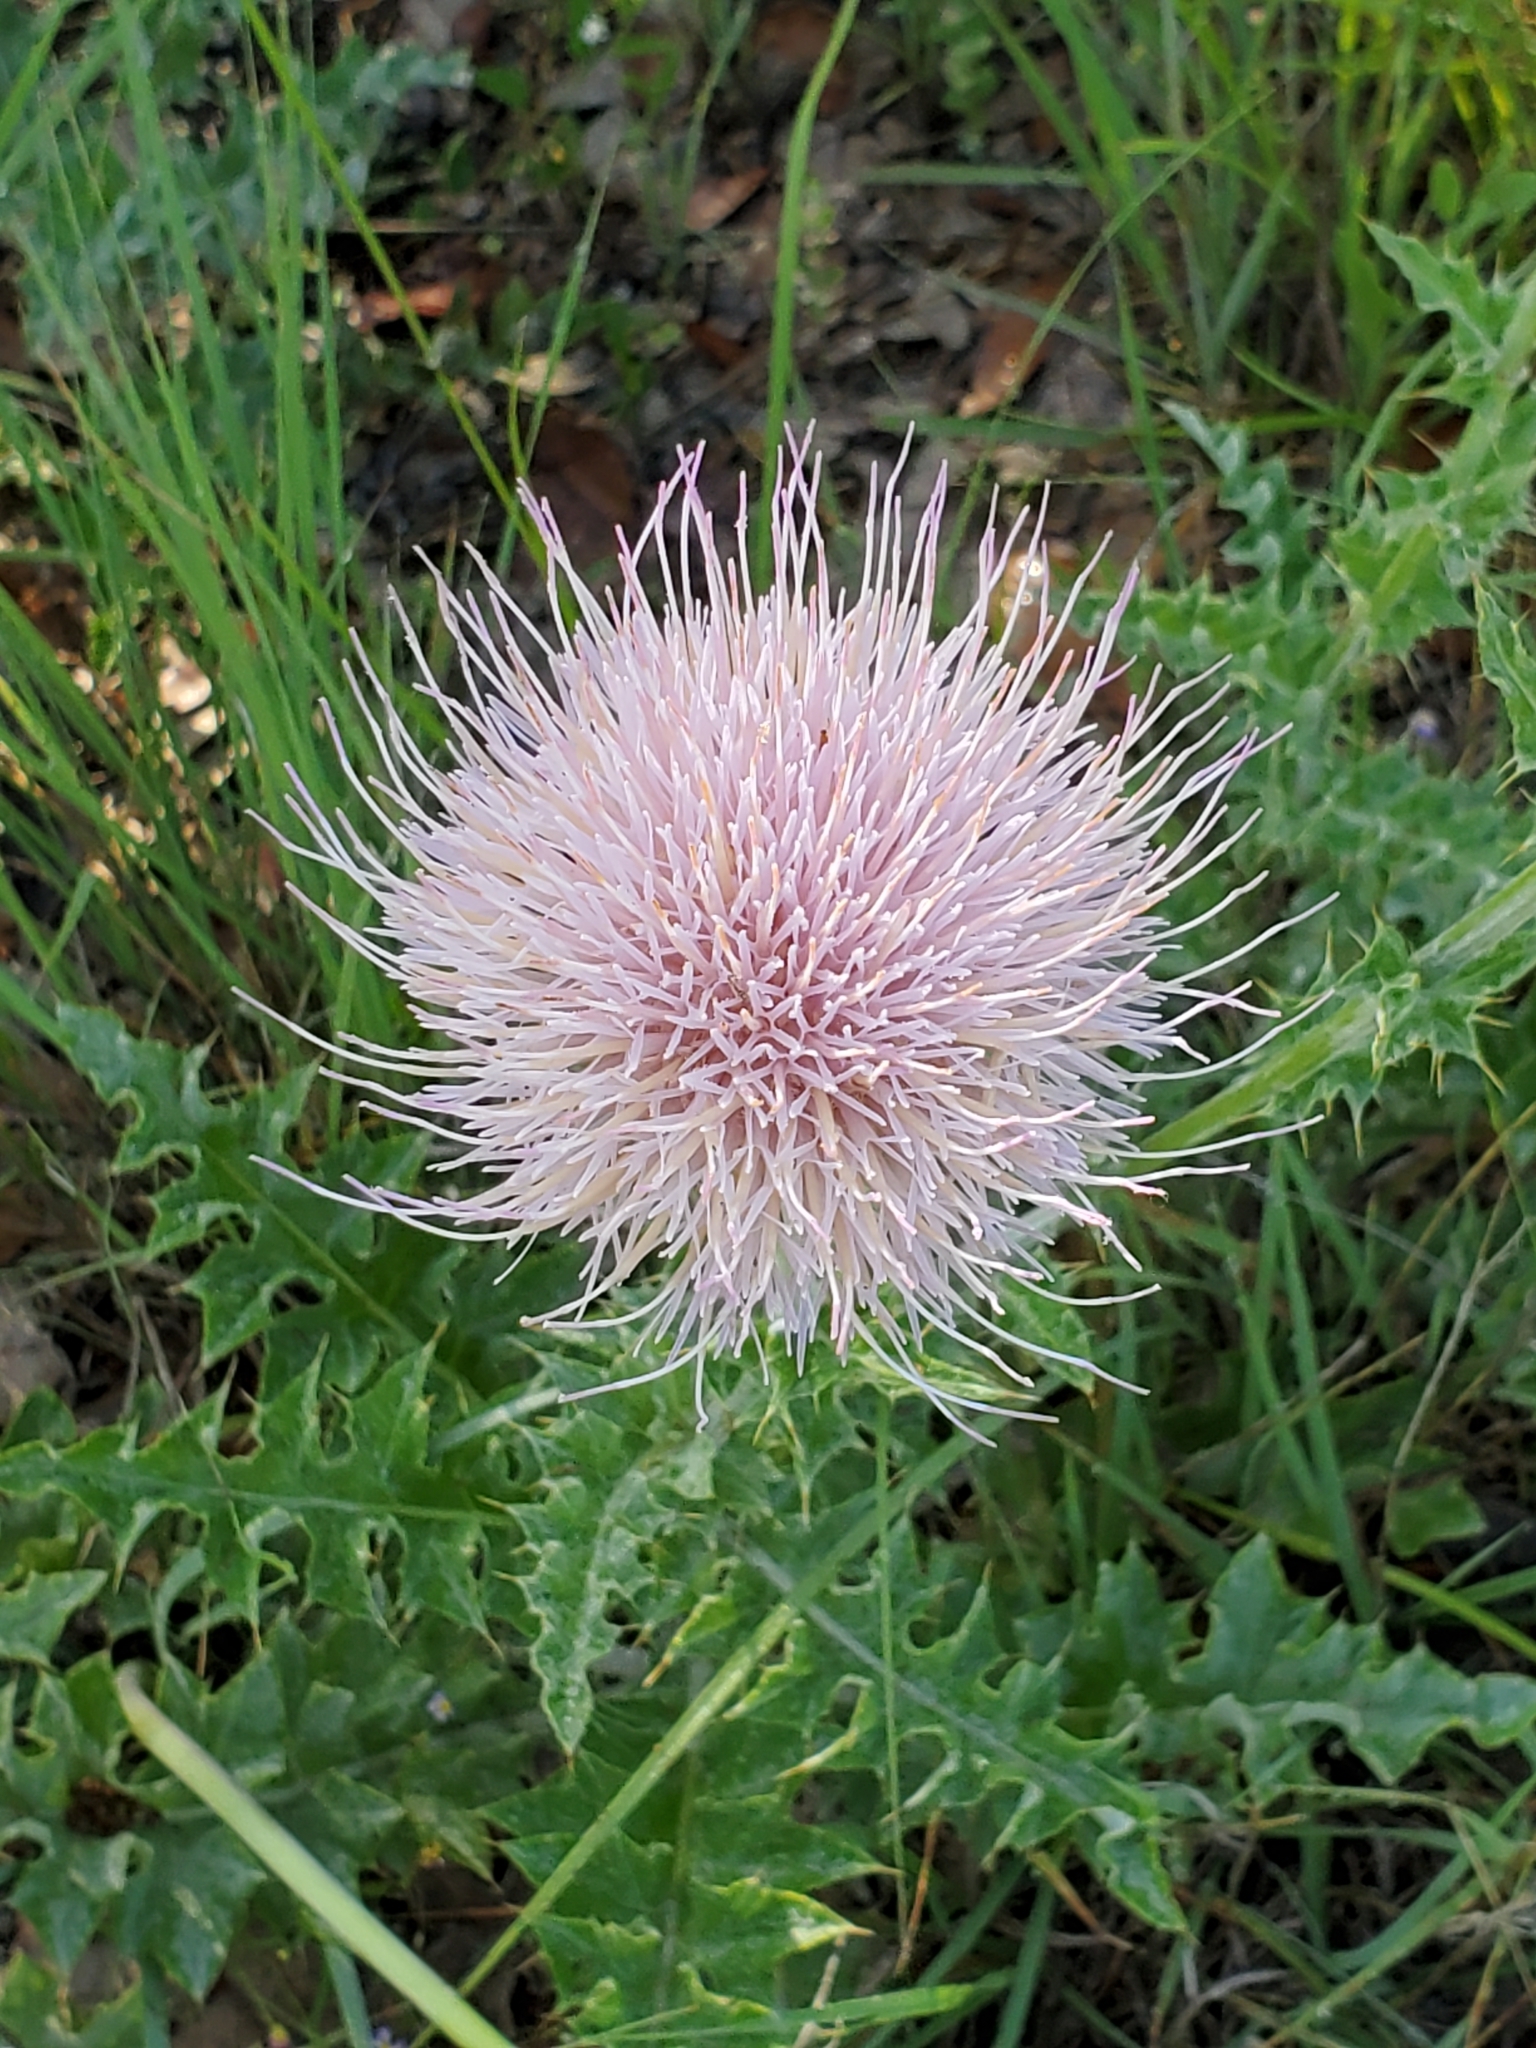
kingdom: Plantae
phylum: Tracheophyta
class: Magnoliopsida
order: Asterales
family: Asteraceae
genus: Cirsium
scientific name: Cirsium texanum
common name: Texas purple thistle
